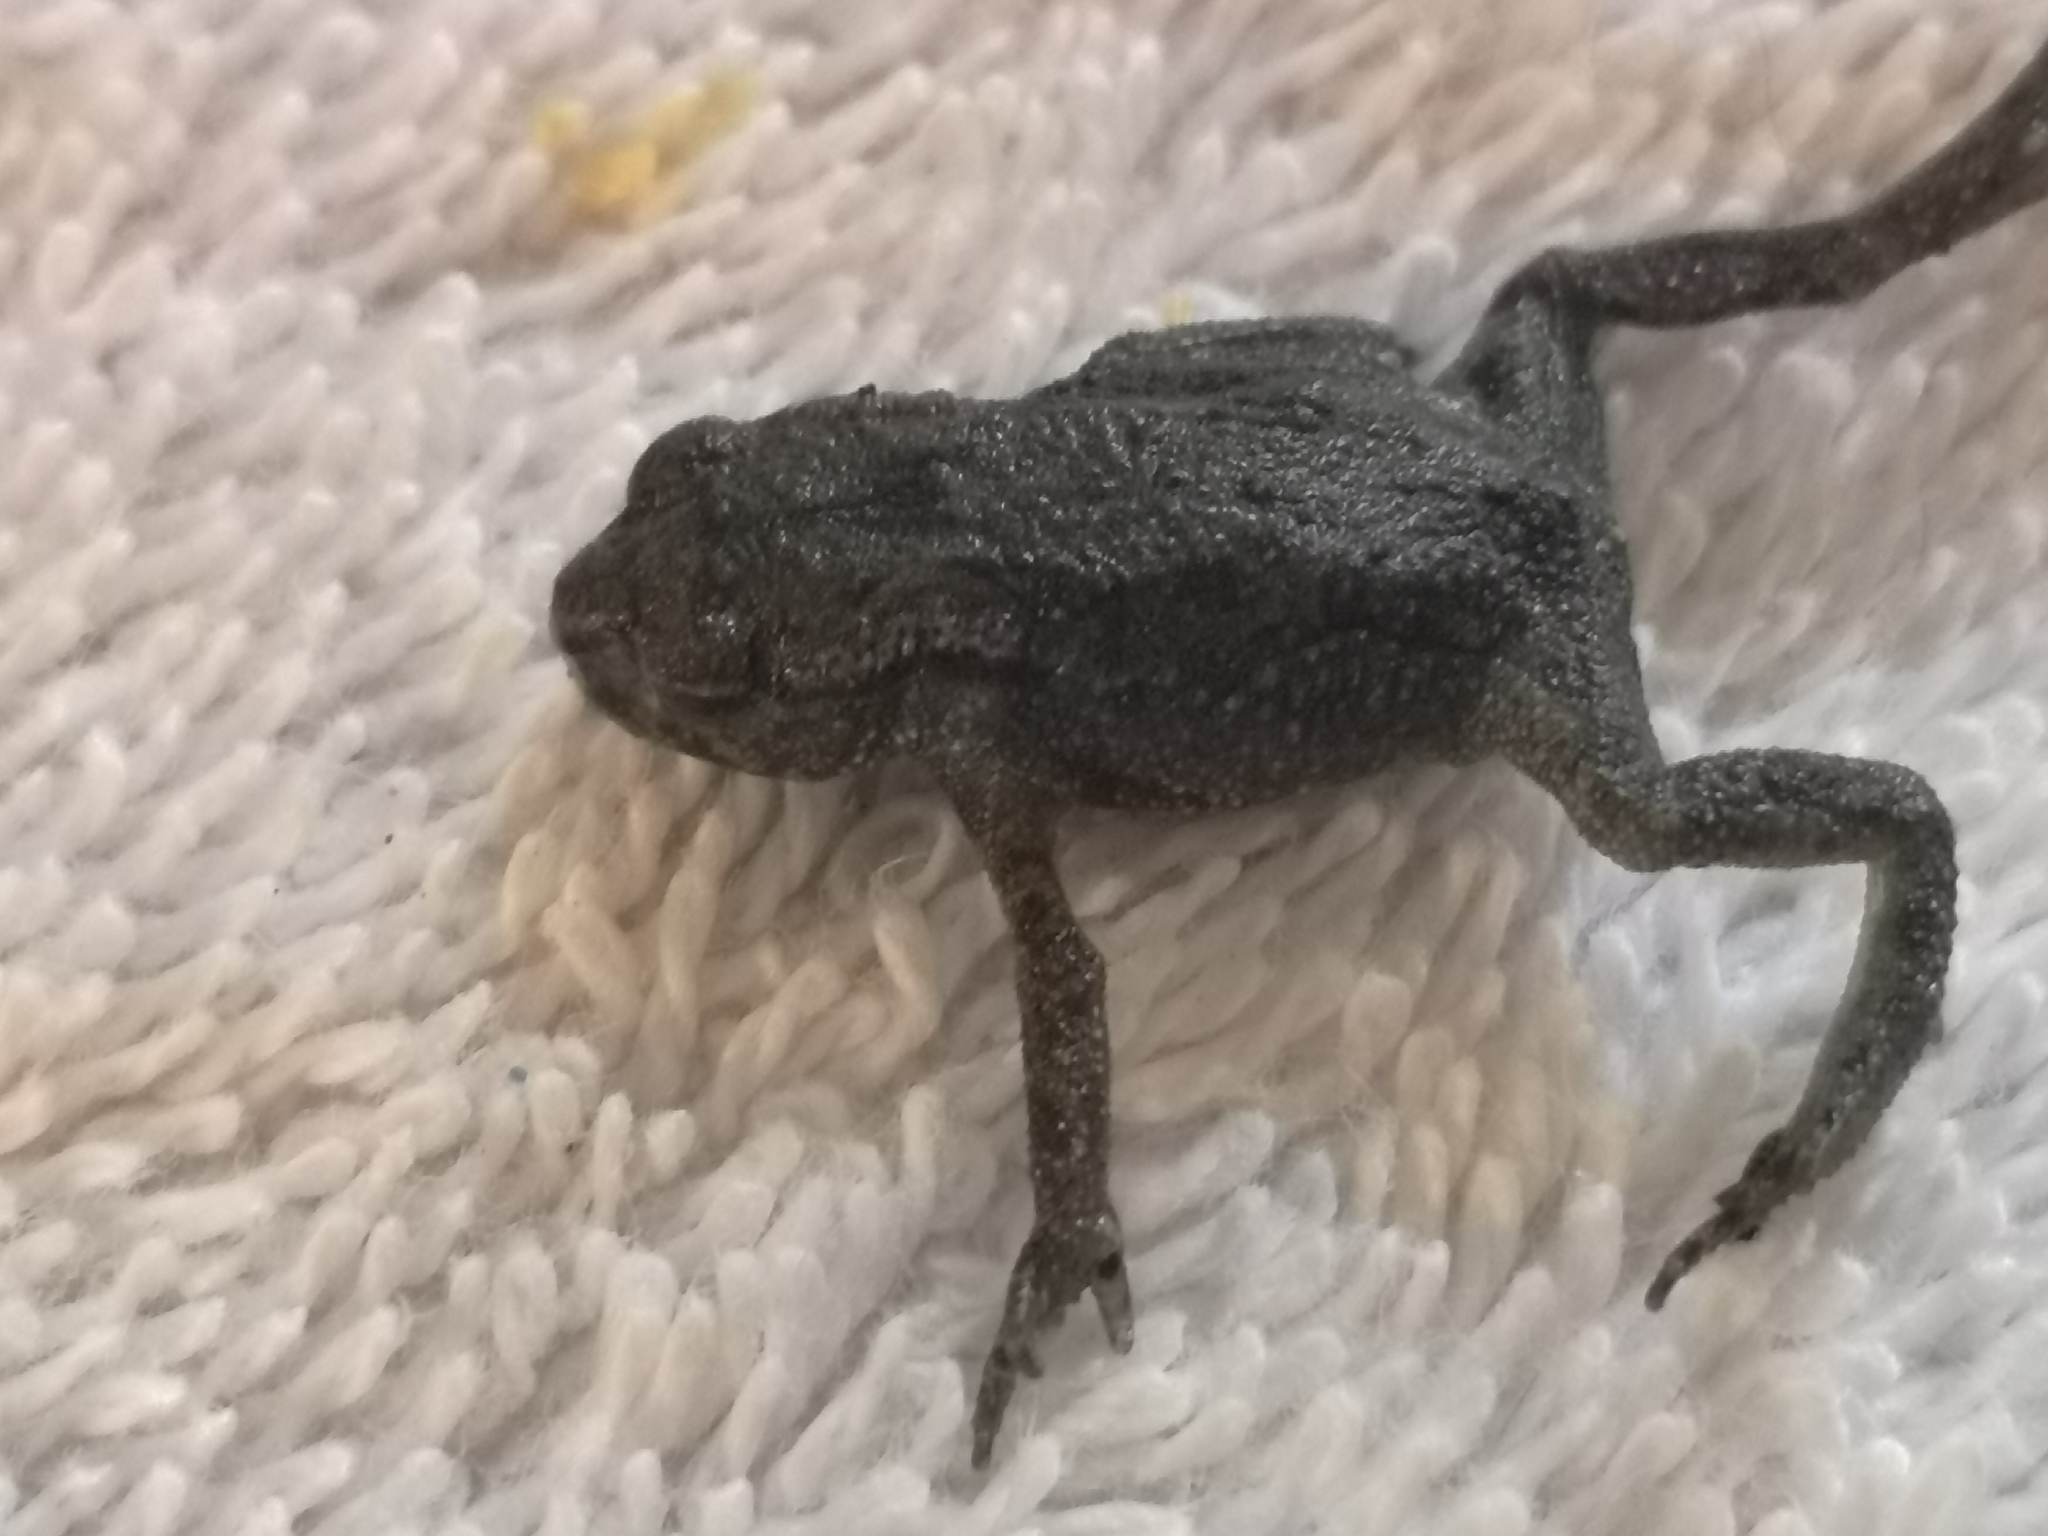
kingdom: Animalia
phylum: Chordata
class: Amphibia
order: Anura
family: Bufonidae
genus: Bufo
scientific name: Bufo bufo
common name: Common toad
